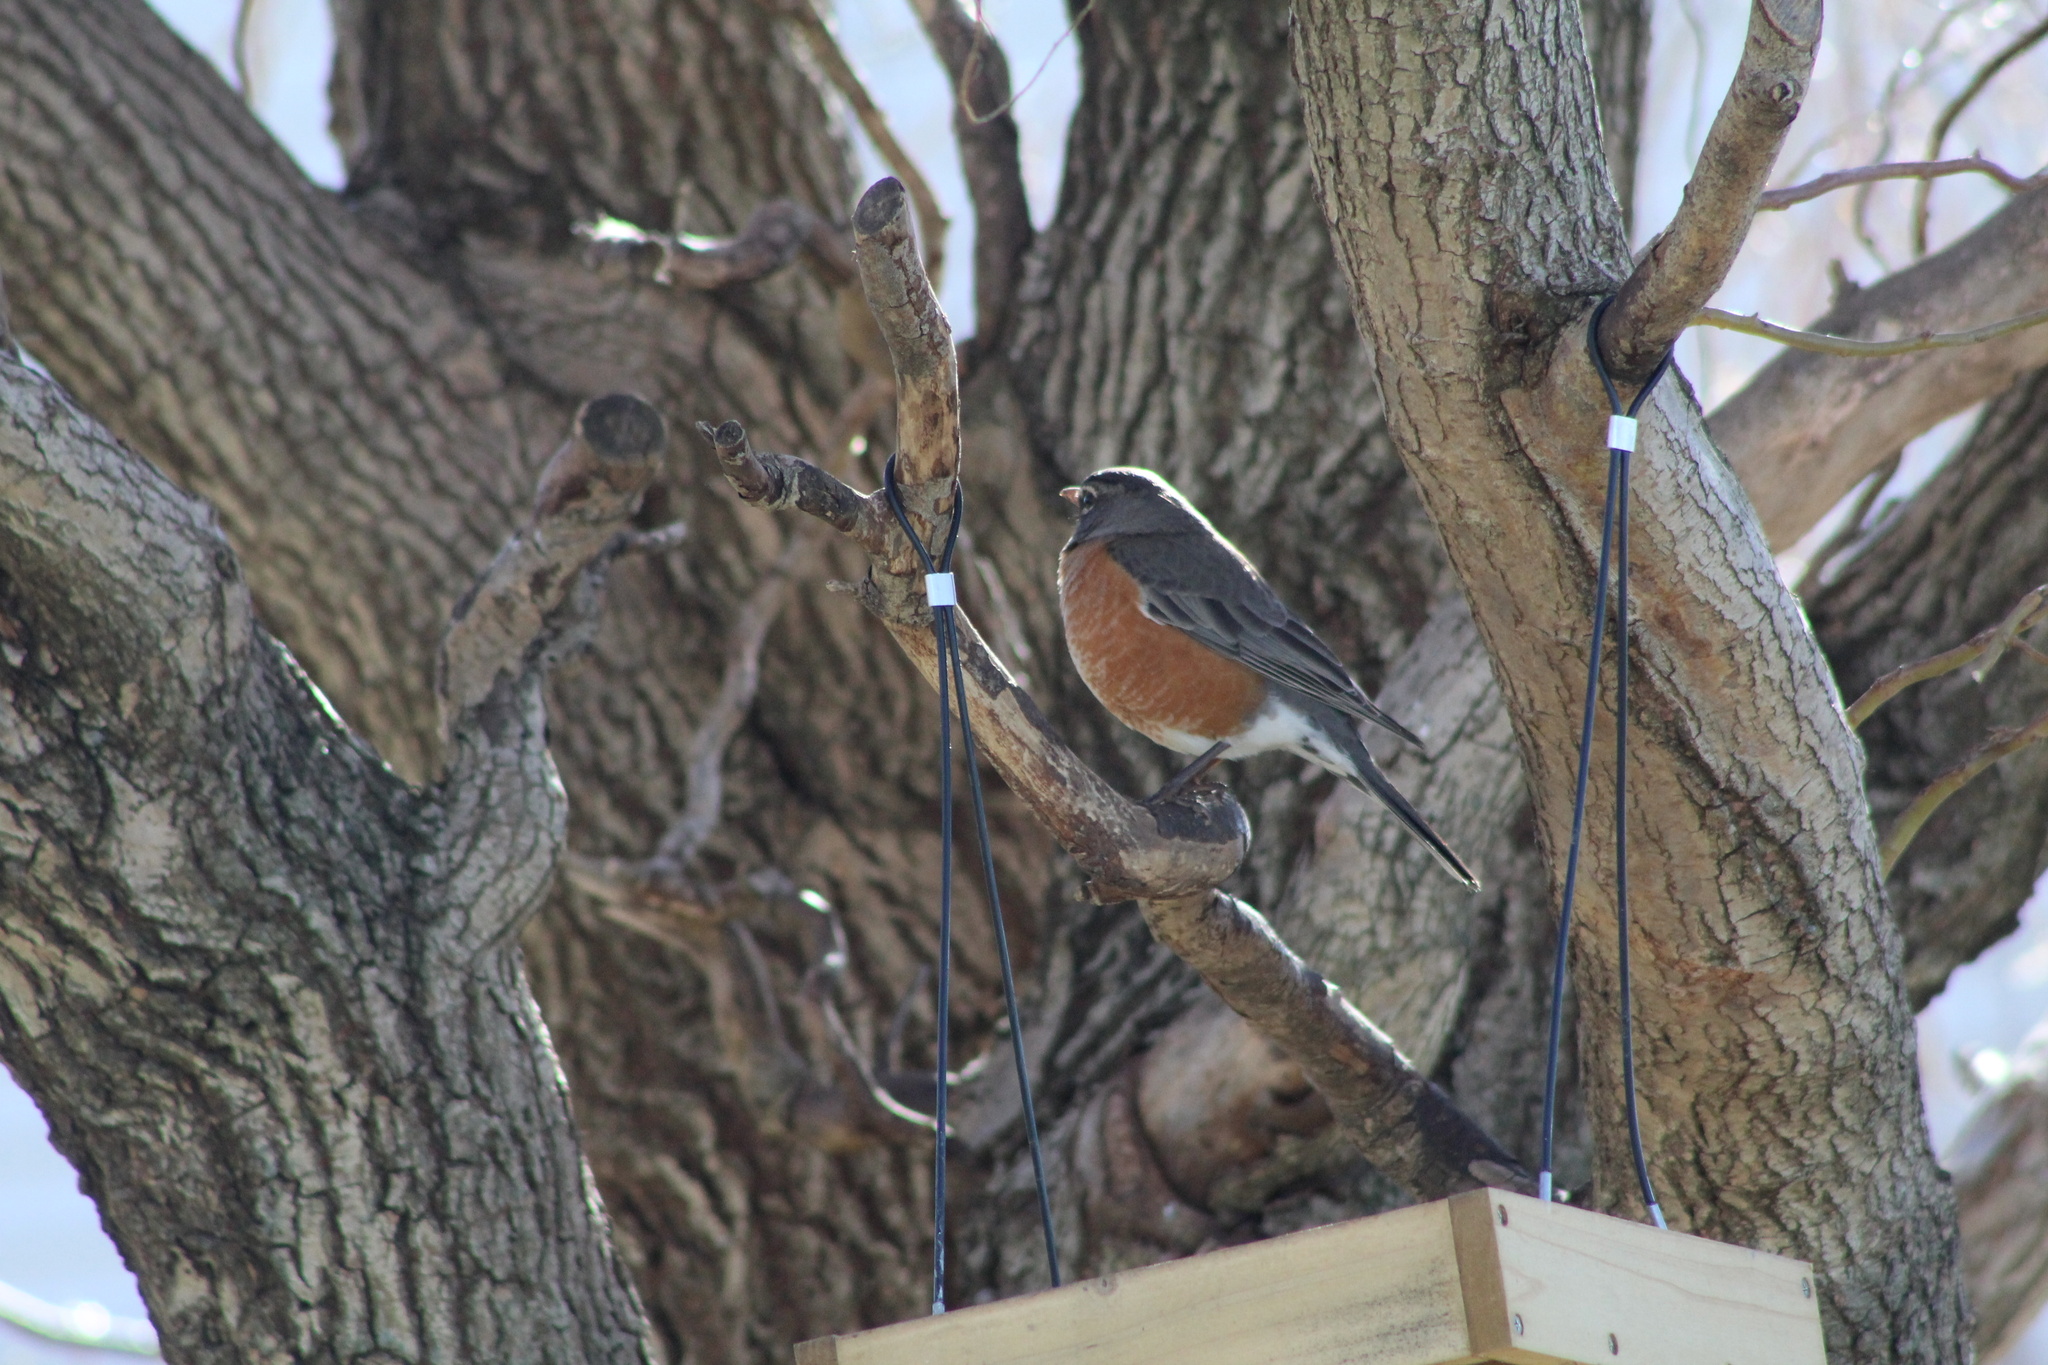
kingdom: Animalia
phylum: Chordata
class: Aves
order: Passeriformes
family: Turdidae
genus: Turdus
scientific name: Turdus migratorius
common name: American robin
